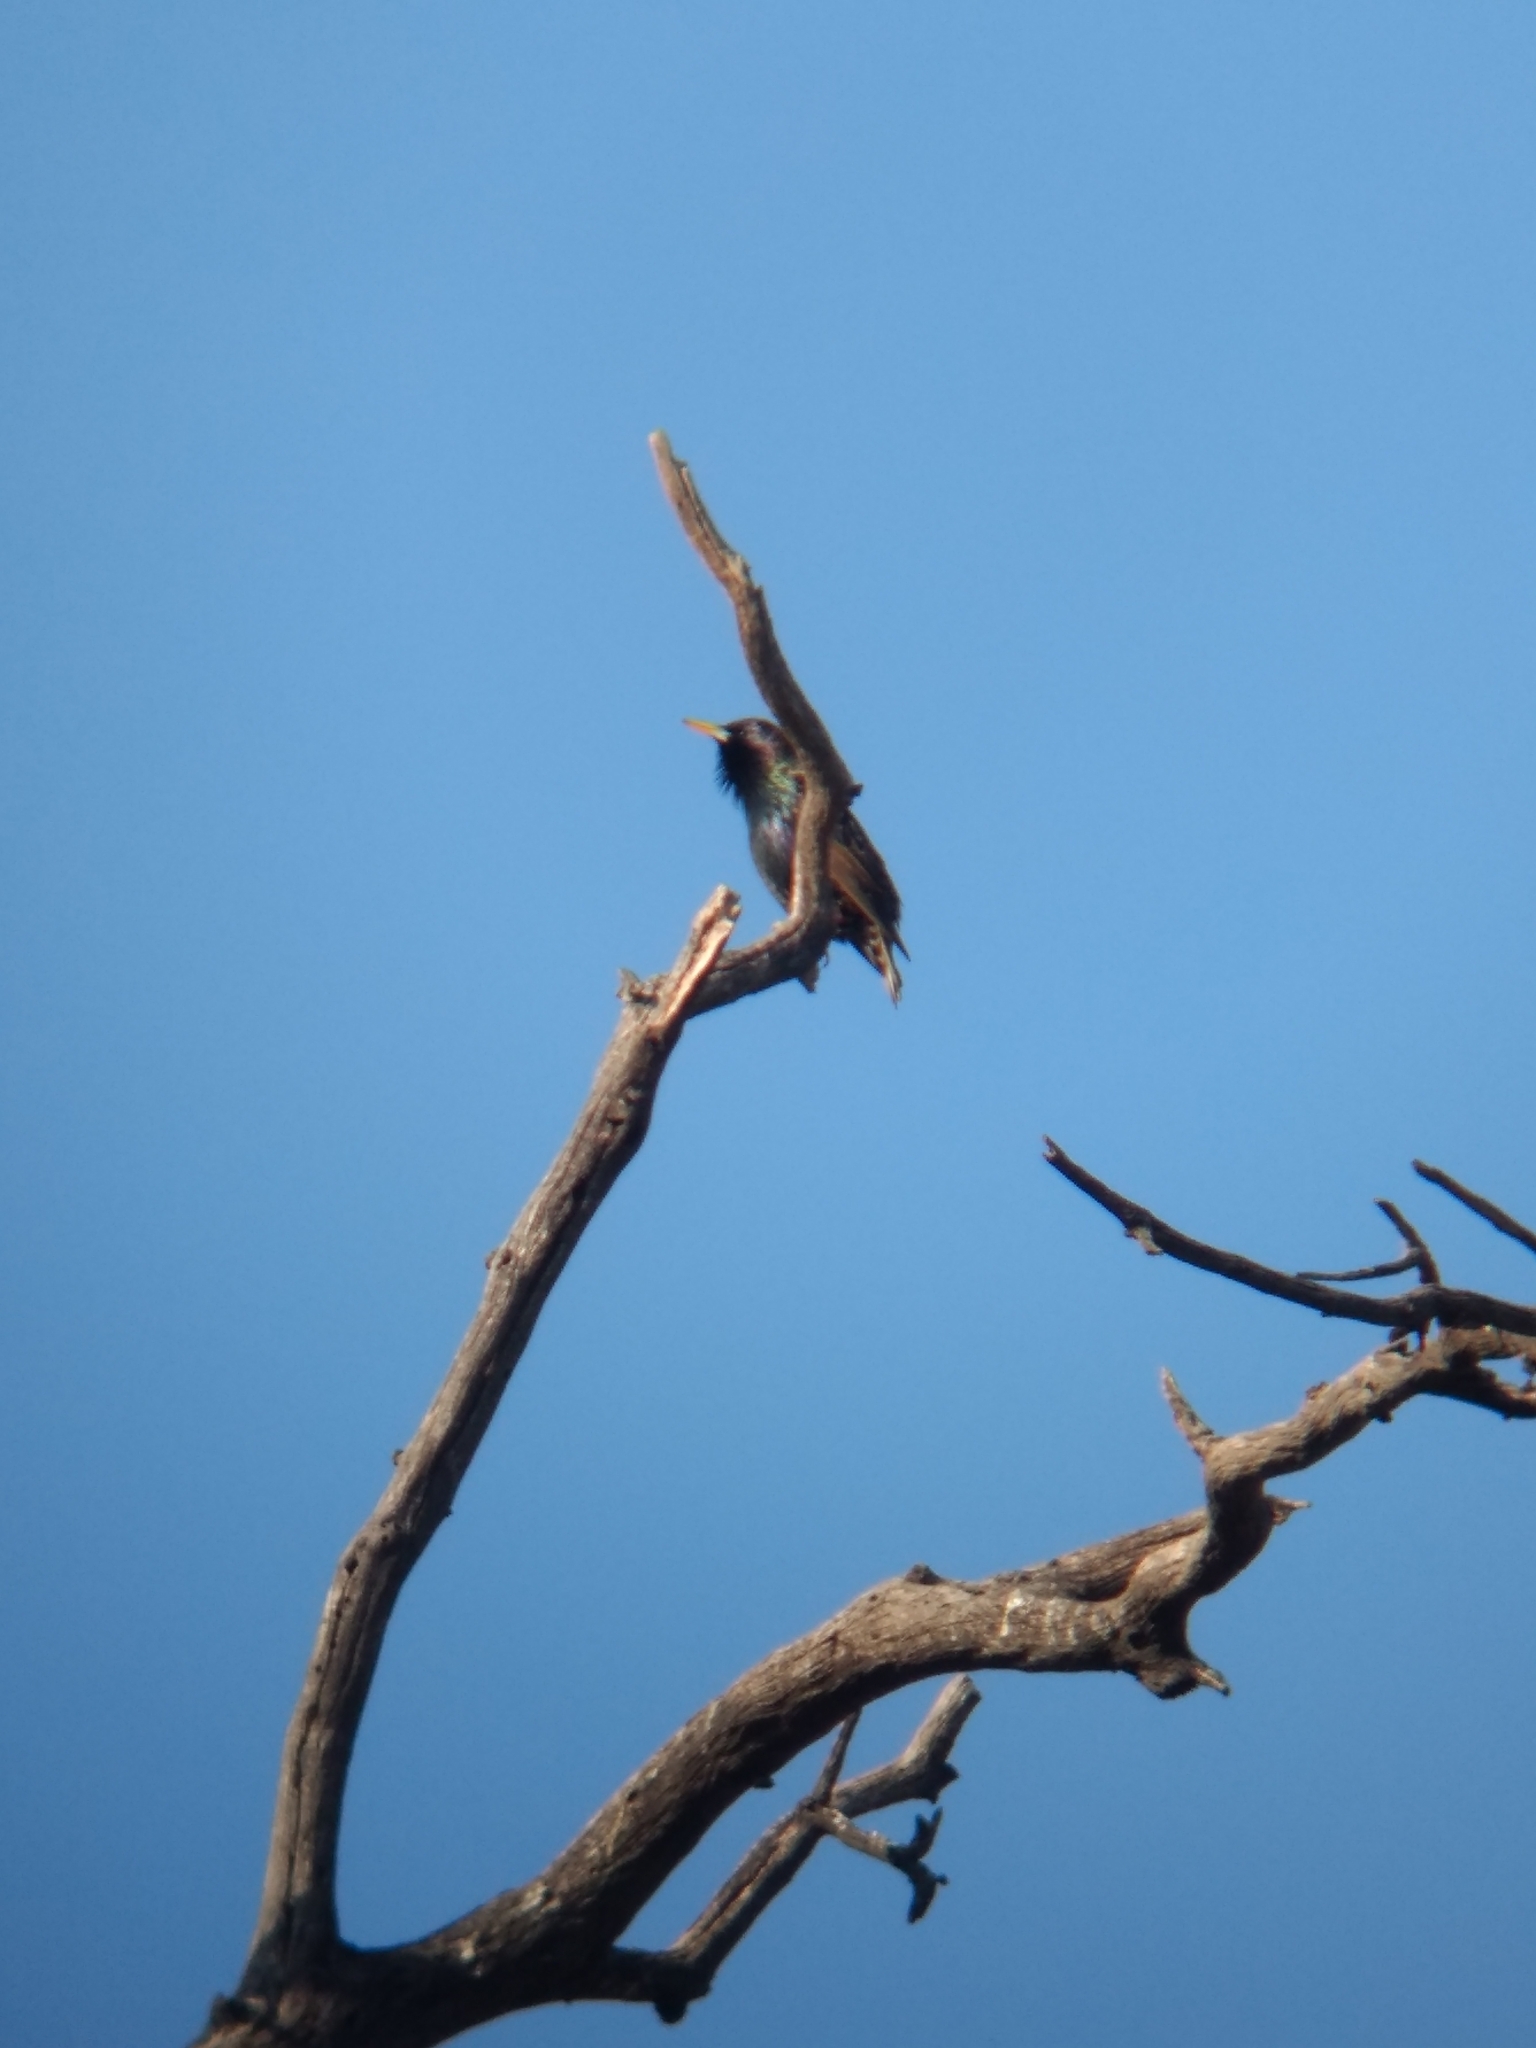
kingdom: Animalia
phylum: Chordata
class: Aves
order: Passeriformes
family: Sturnidae
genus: Sturnus
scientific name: Sturnus vulgaris
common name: Common starling
